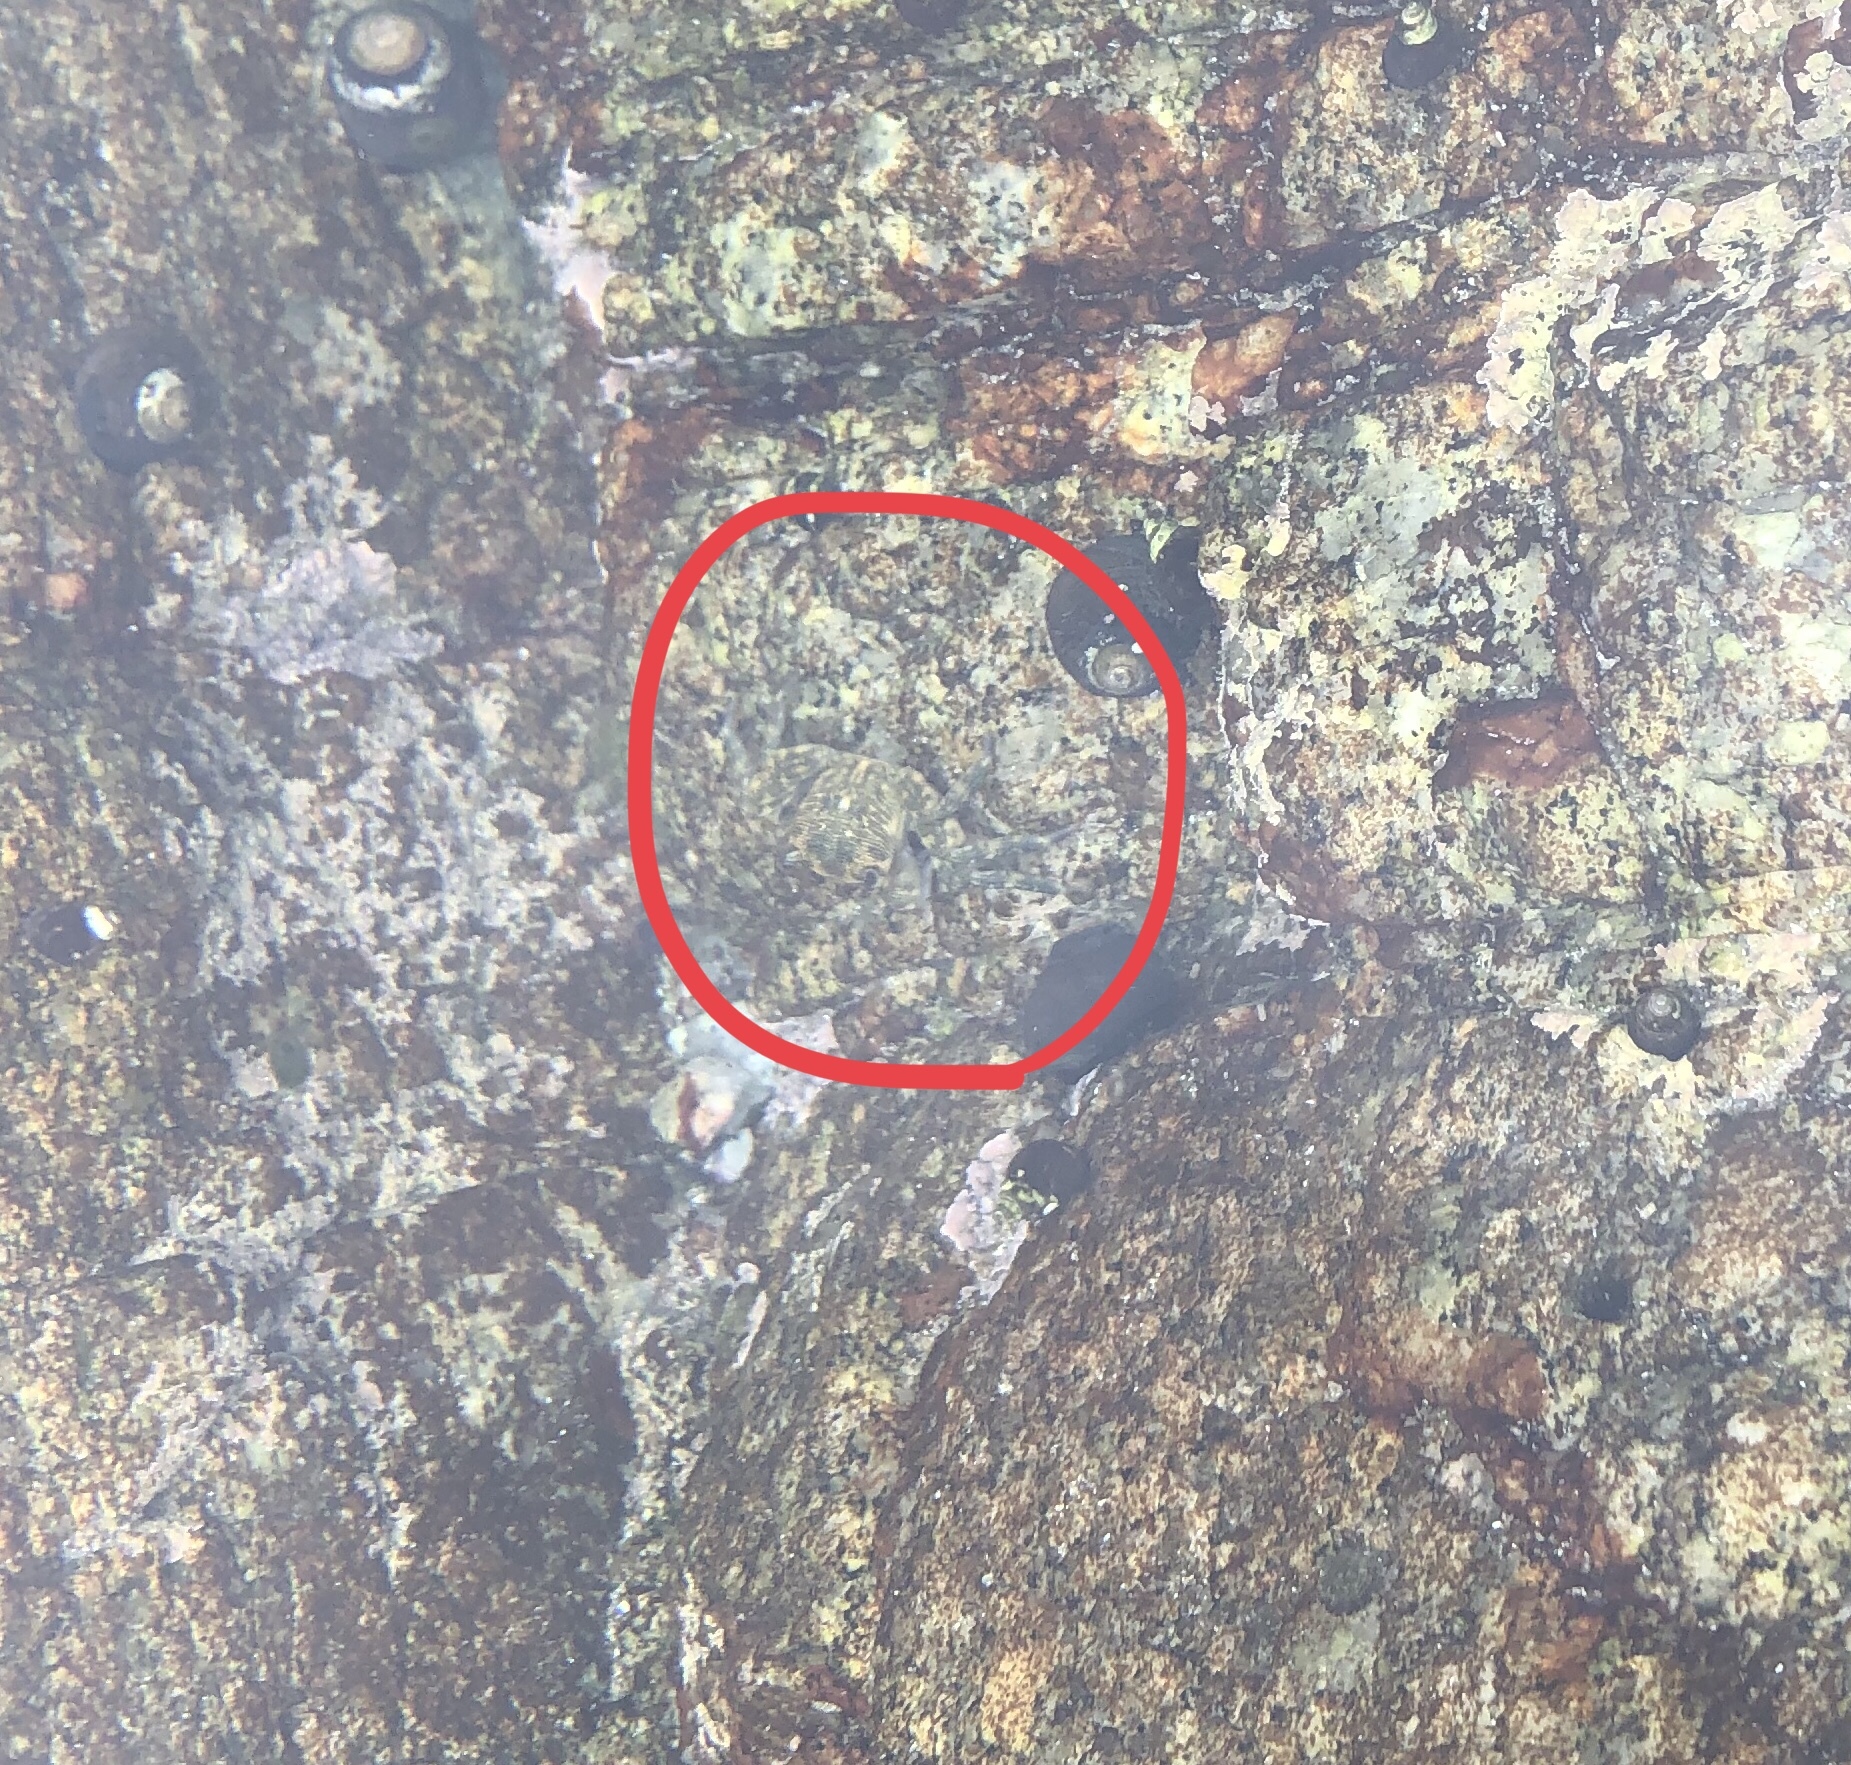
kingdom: Animalia
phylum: Arthropoda
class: Malacostraca
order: Decapoda
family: Grapsidae
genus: Pachygrapsus
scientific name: Pachygrapsus crassipes
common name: Striped shore crab
